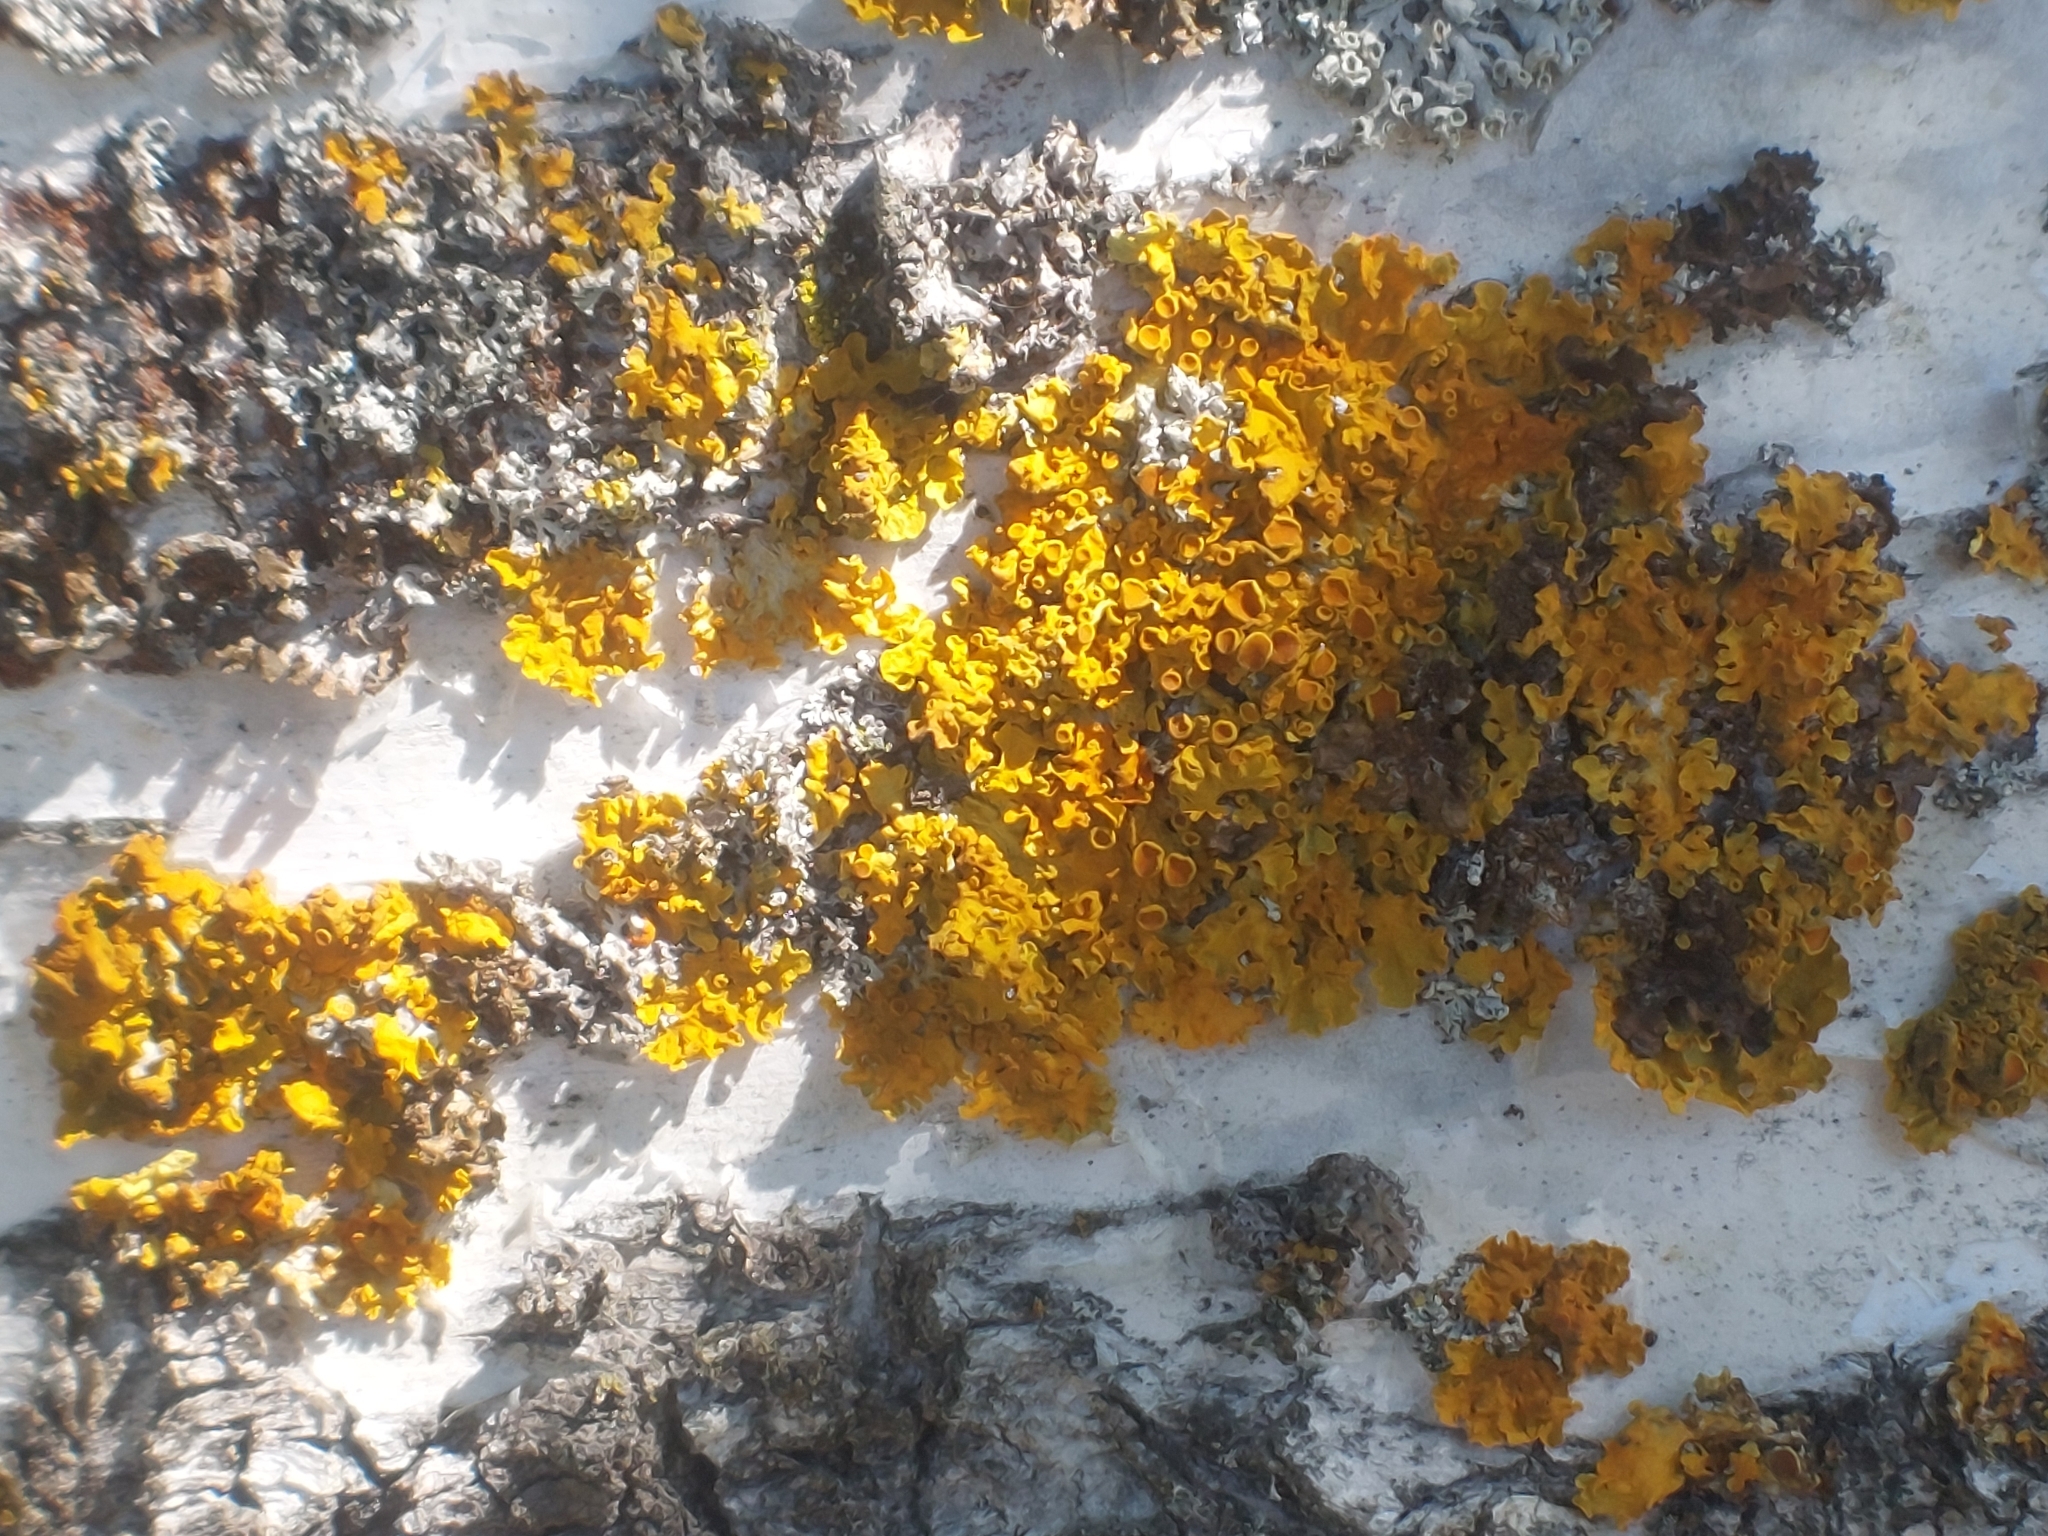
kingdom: Fungi
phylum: Ascomycota
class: Lecanoromycetes
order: Teloschistales
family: Teloschistaceae
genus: Xanthoria
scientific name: Xanthoria parietina
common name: Common orange lichen
